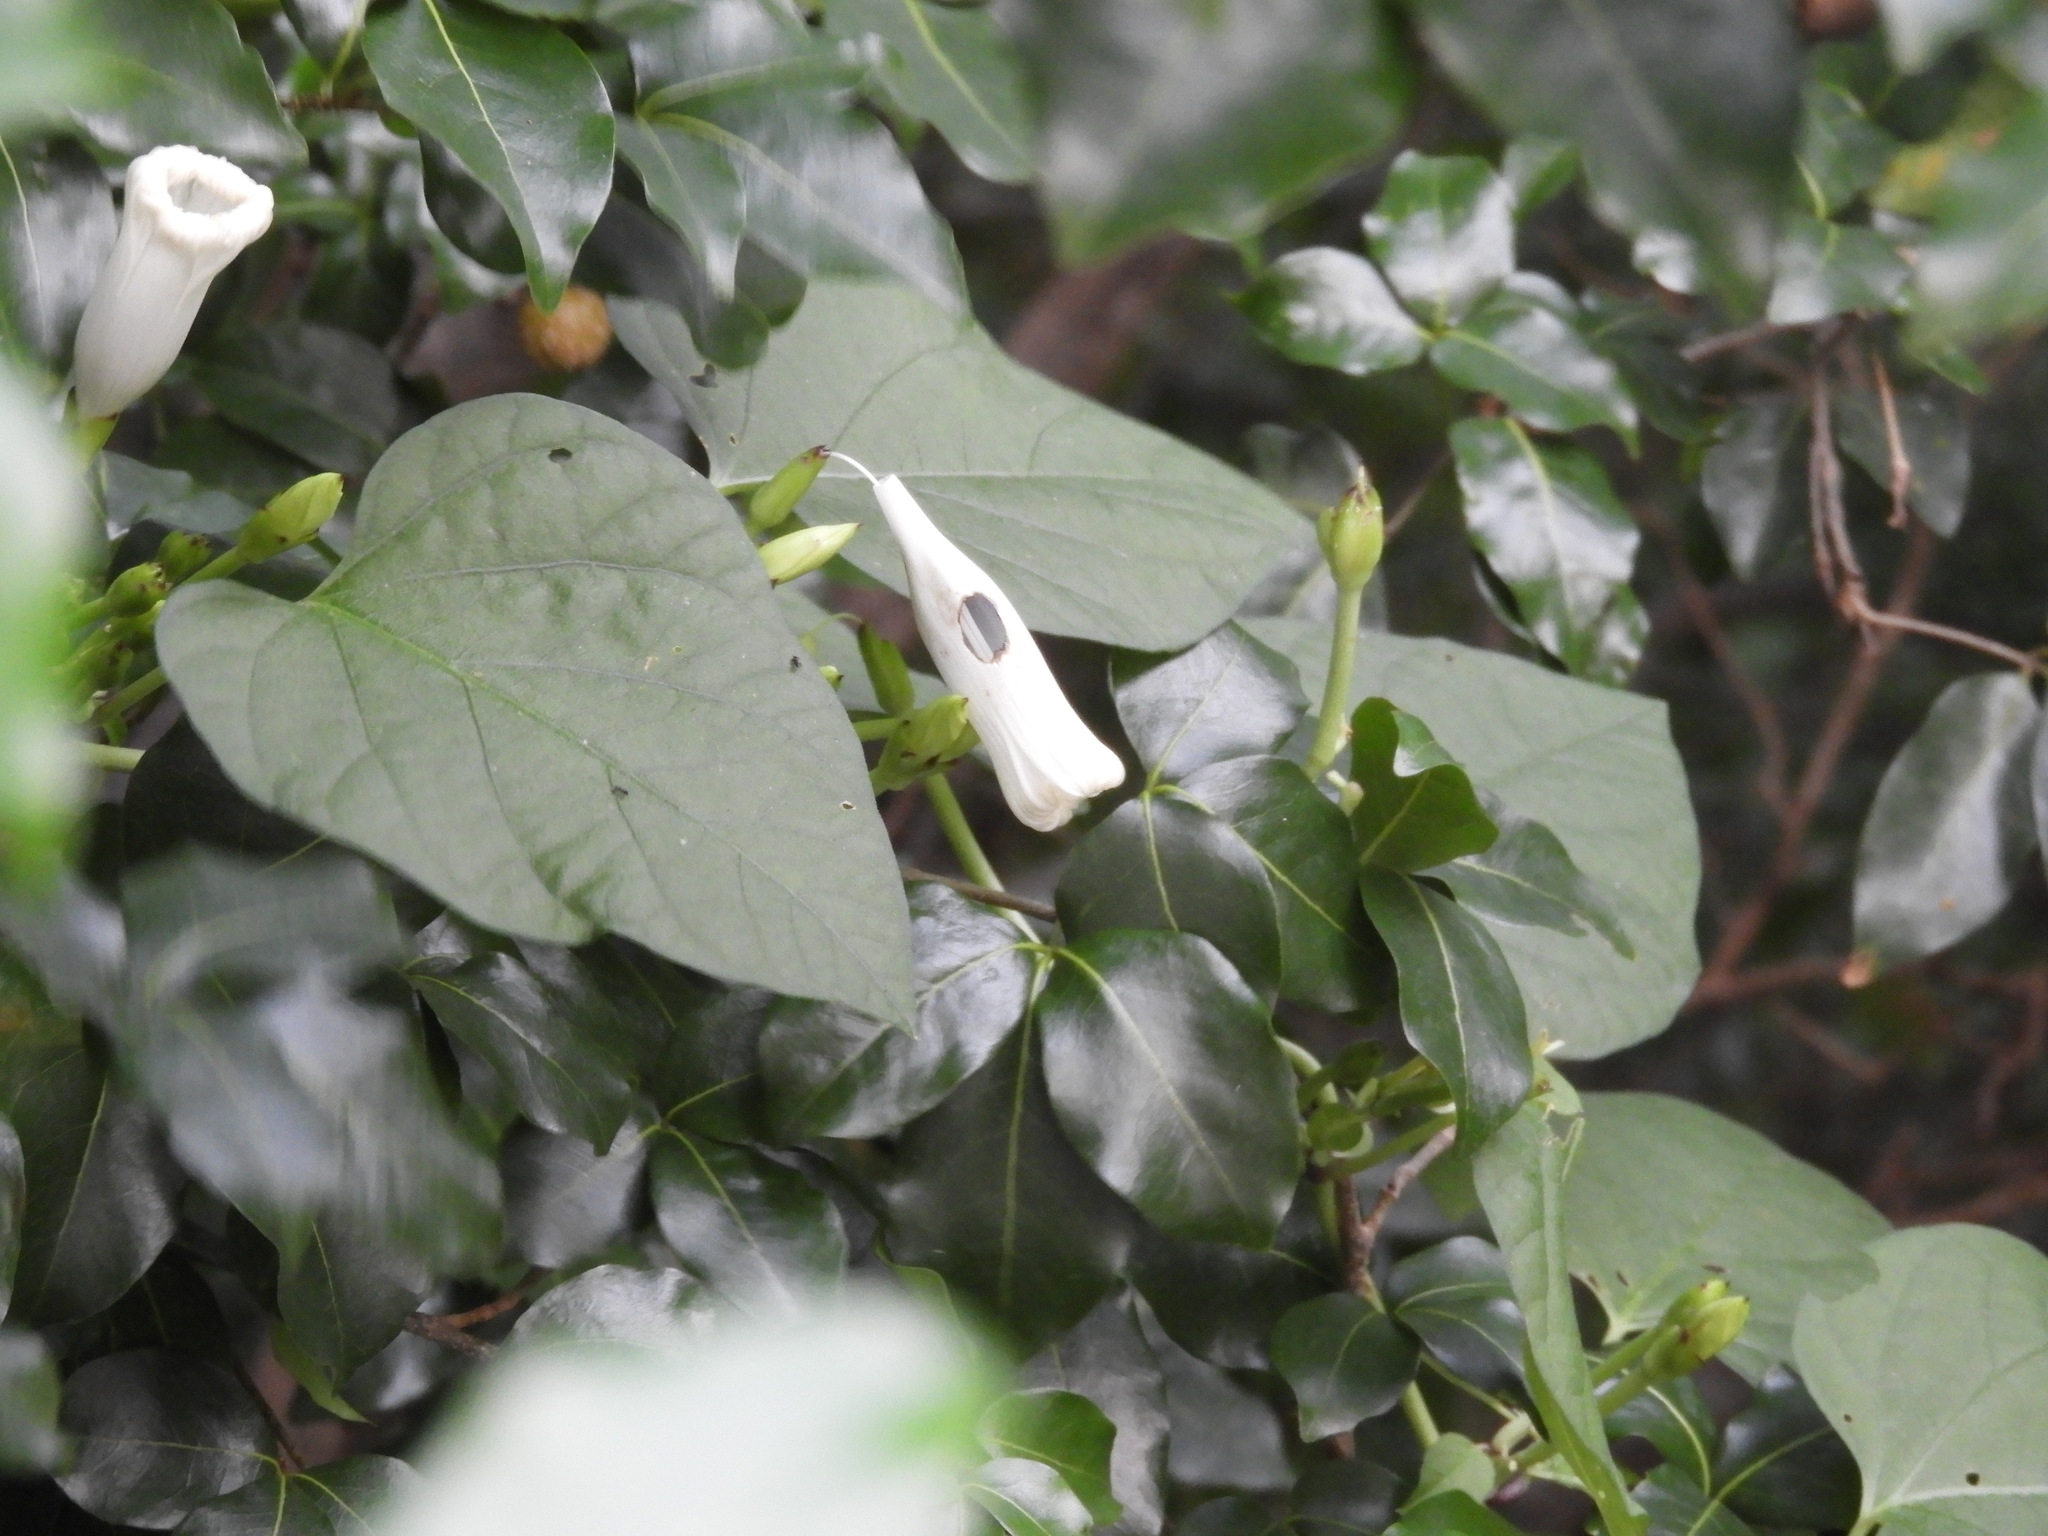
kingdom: Plantae
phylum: Tracheophyta
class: Magnoliopsida
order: Solanales
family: Convolvulaceae
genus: Ipomoea
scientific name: Ipomoea scopulorum
